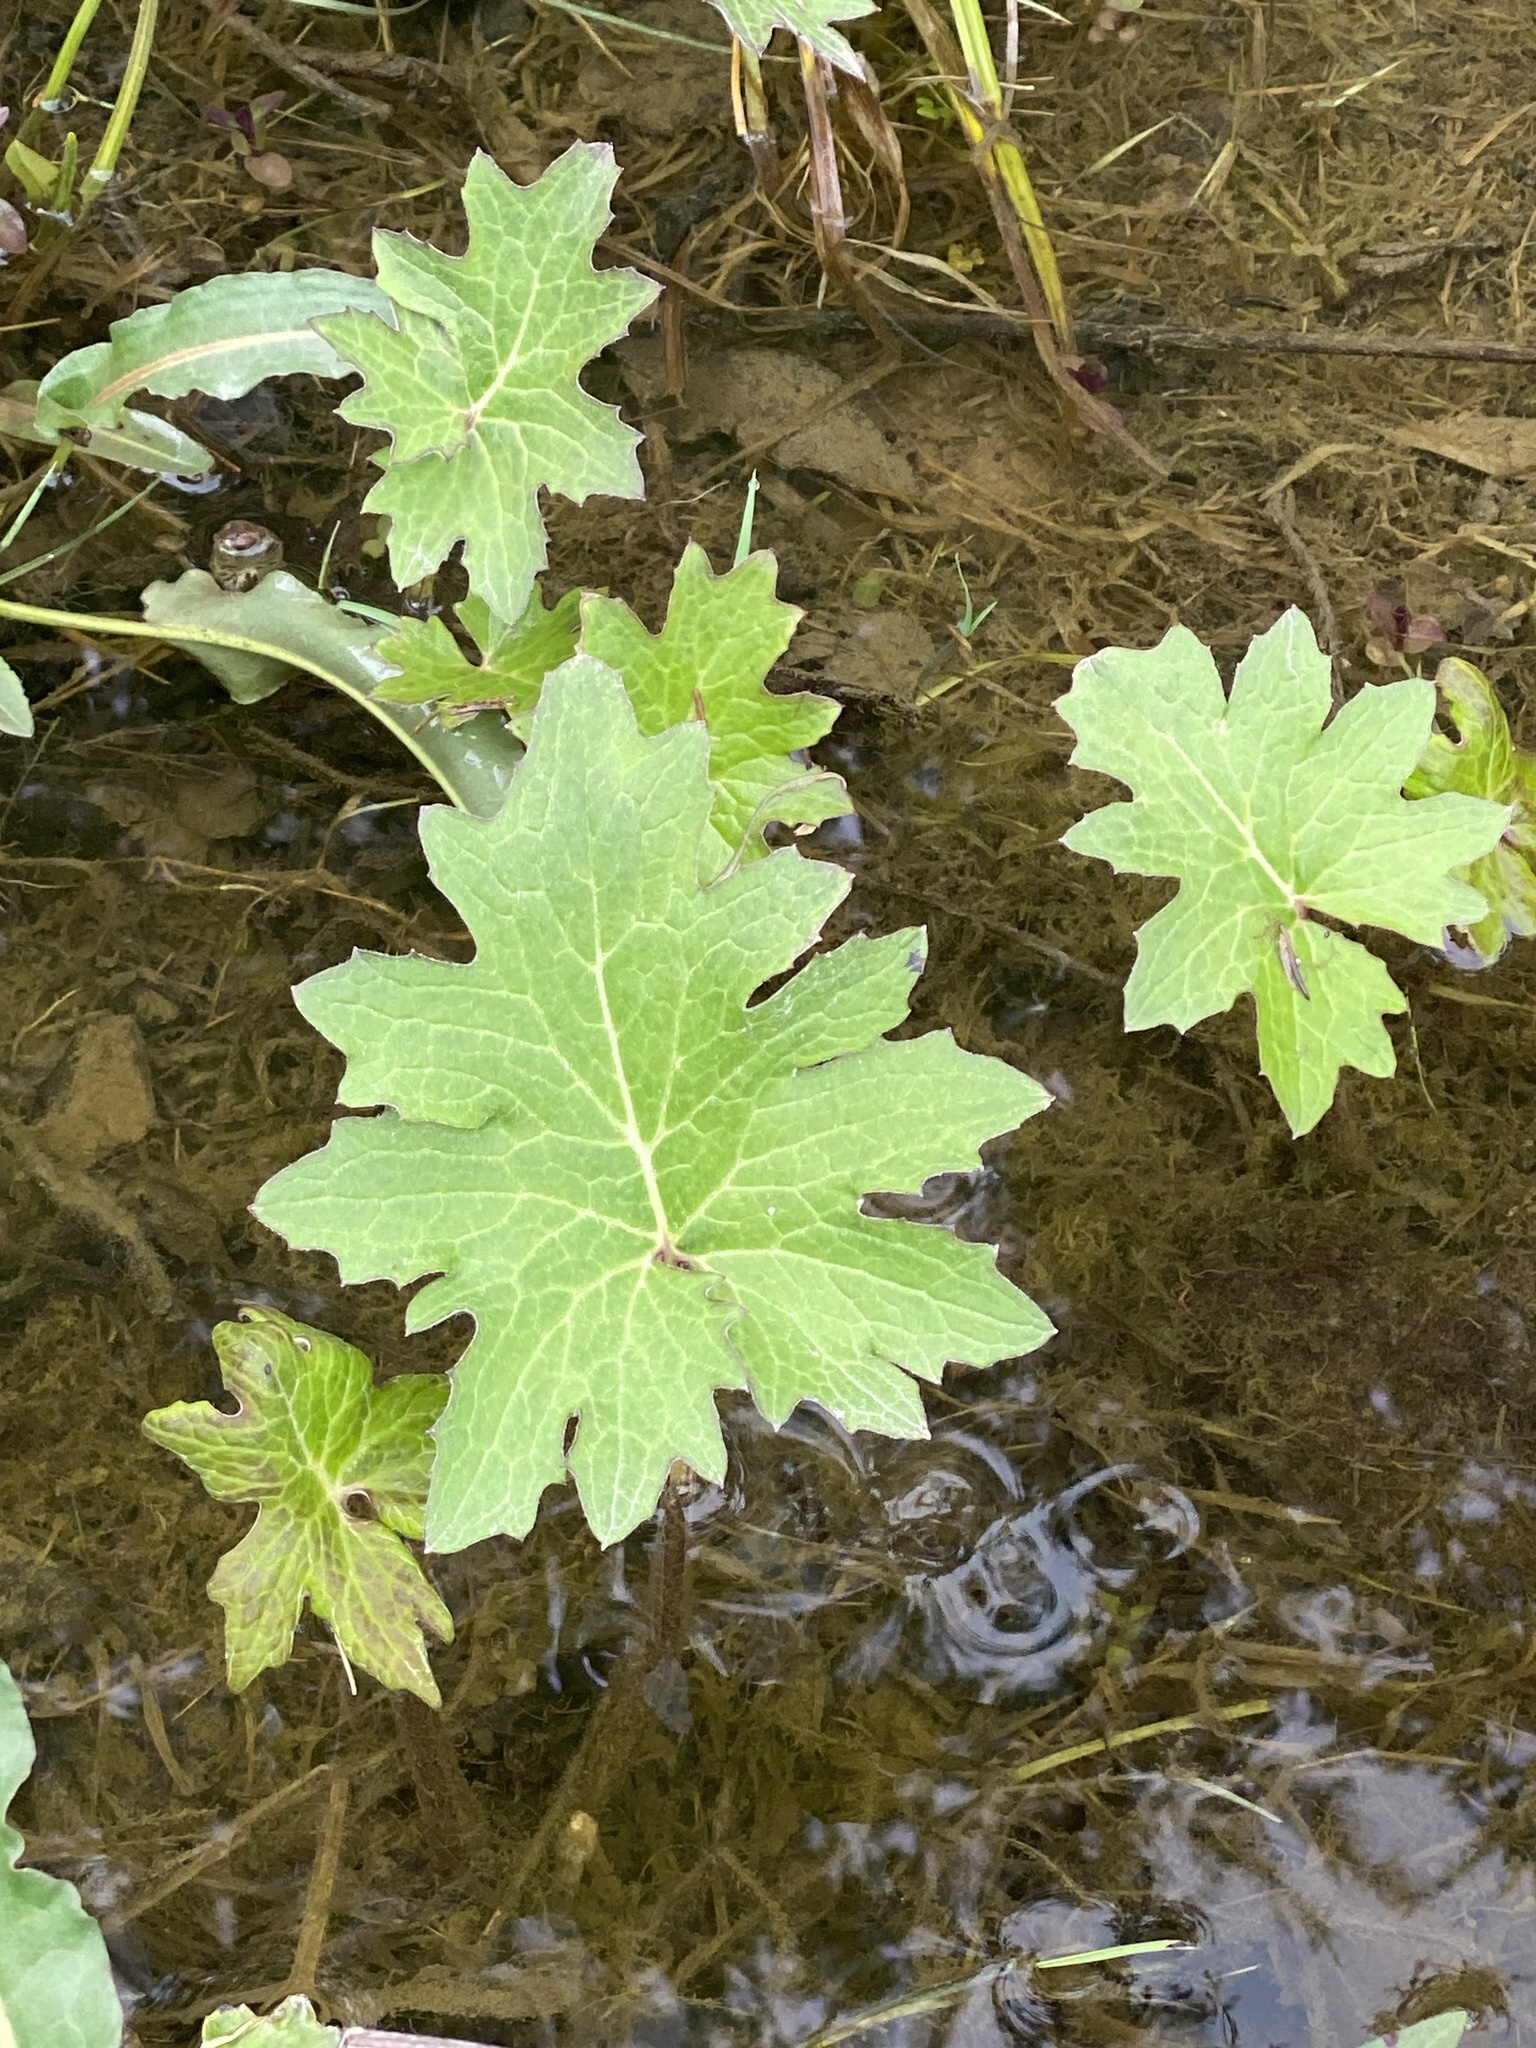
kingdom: Plantae
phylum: Tracheophyta
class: Magnoliopsida
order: Asterales
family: Asteraceae
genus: Petasites
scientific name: Petasites frigidus
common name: Arctic butterbur
